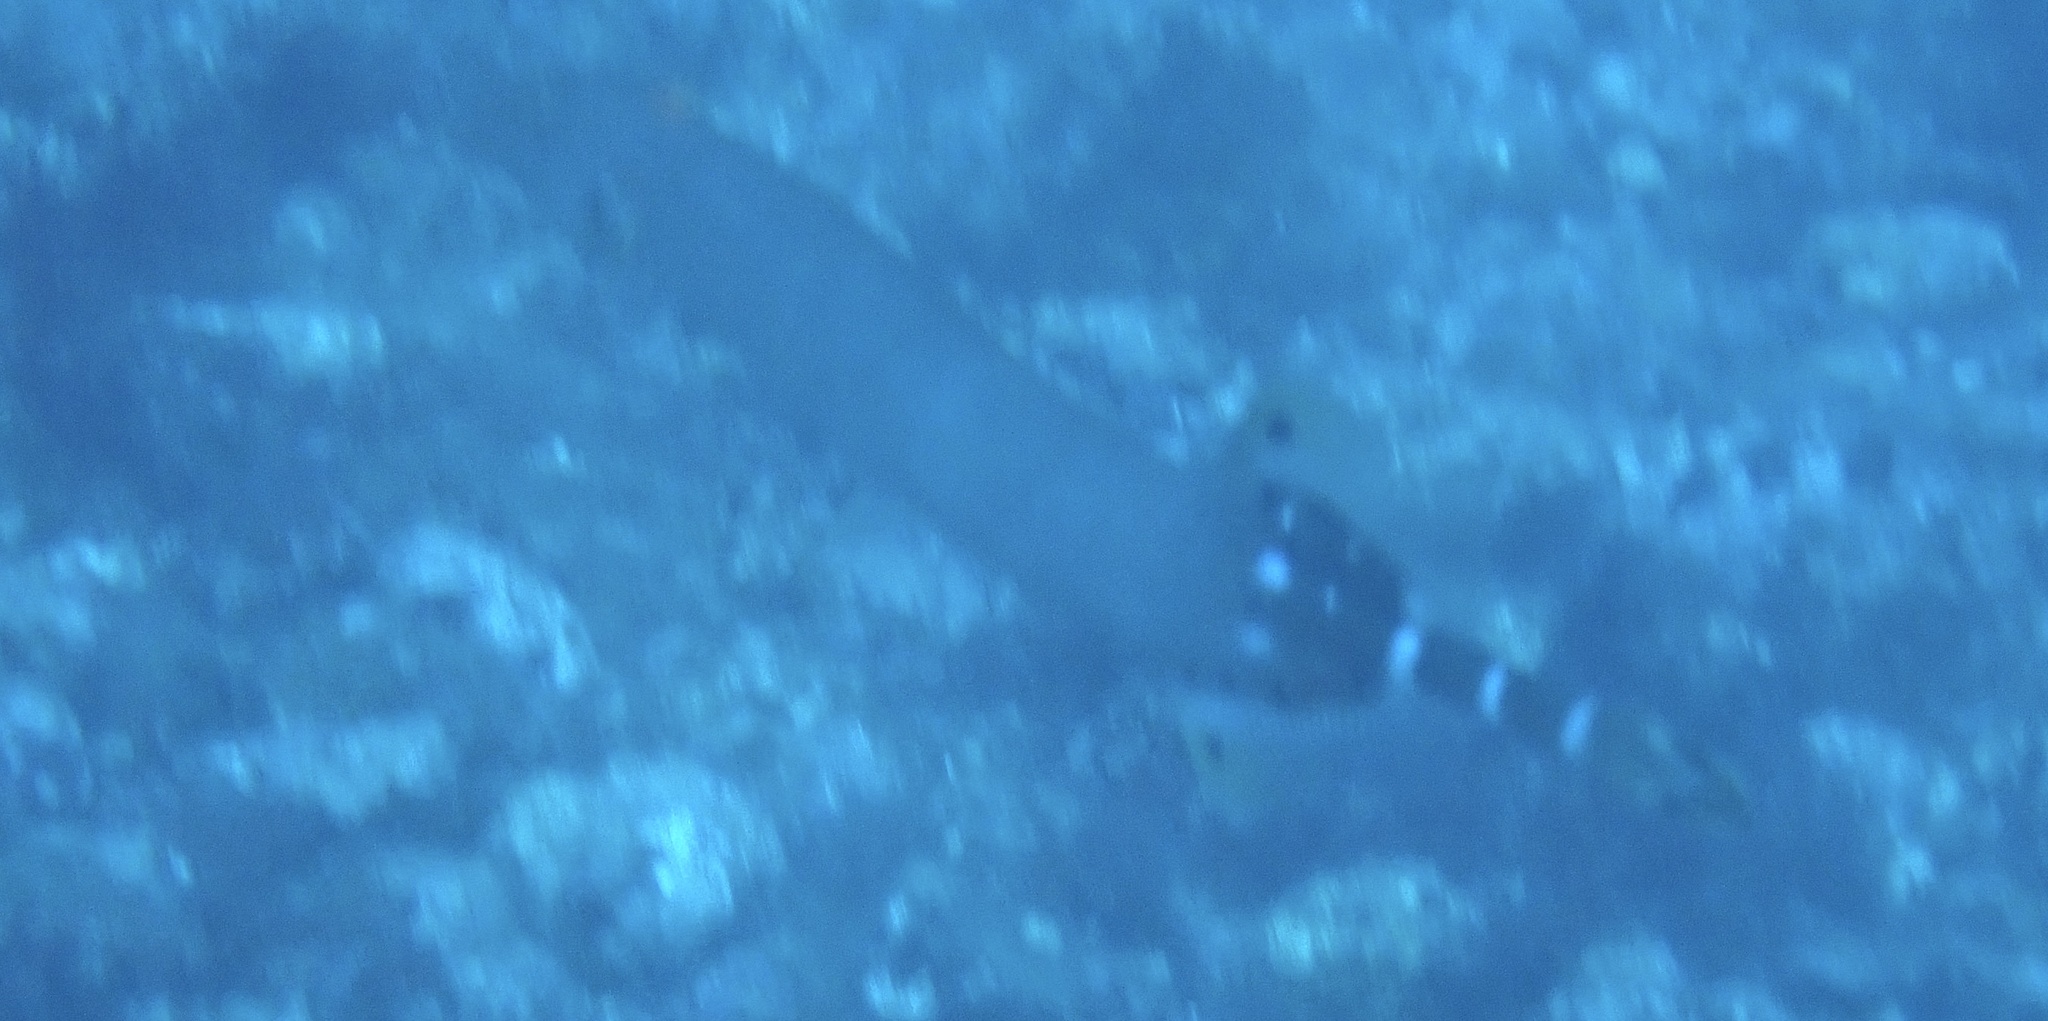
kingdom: Animalia
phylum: Chordata
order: Syngnathiformes
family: Aulostomidae
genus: Aulostomus
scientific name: Aulostomus strigosus
